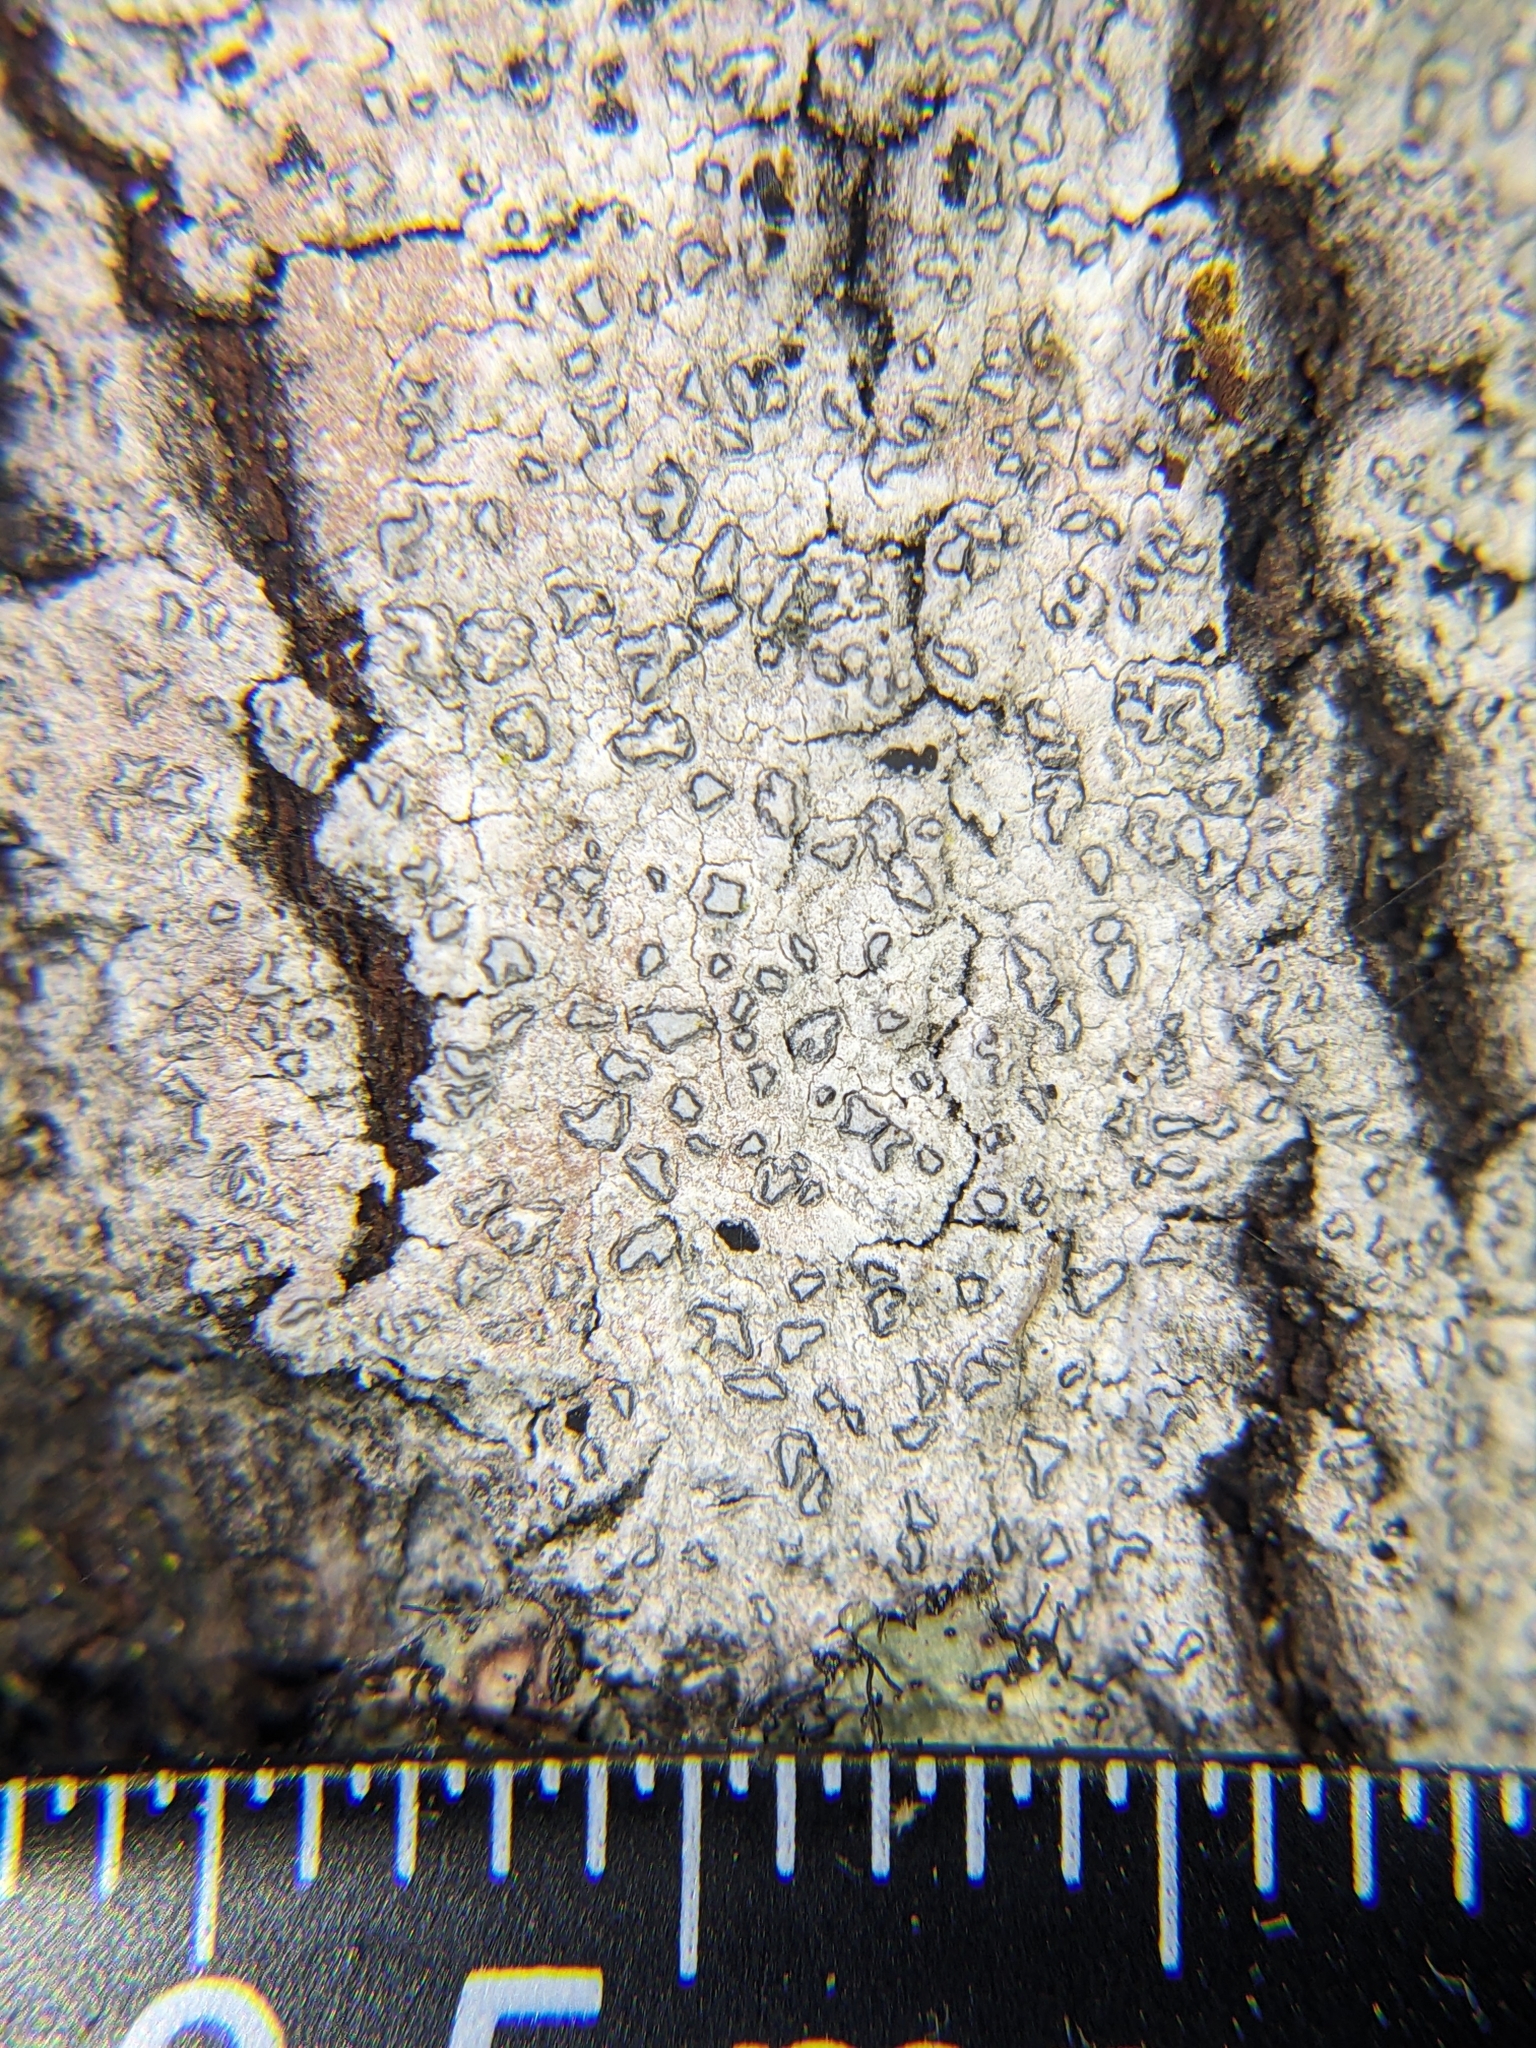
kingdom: Fungi
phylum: Ascomycota
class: Arthoniomycetes
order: Arthoniales
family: Lecanographaceae
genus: Lecanographa
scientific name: Lecanographa lyncea
